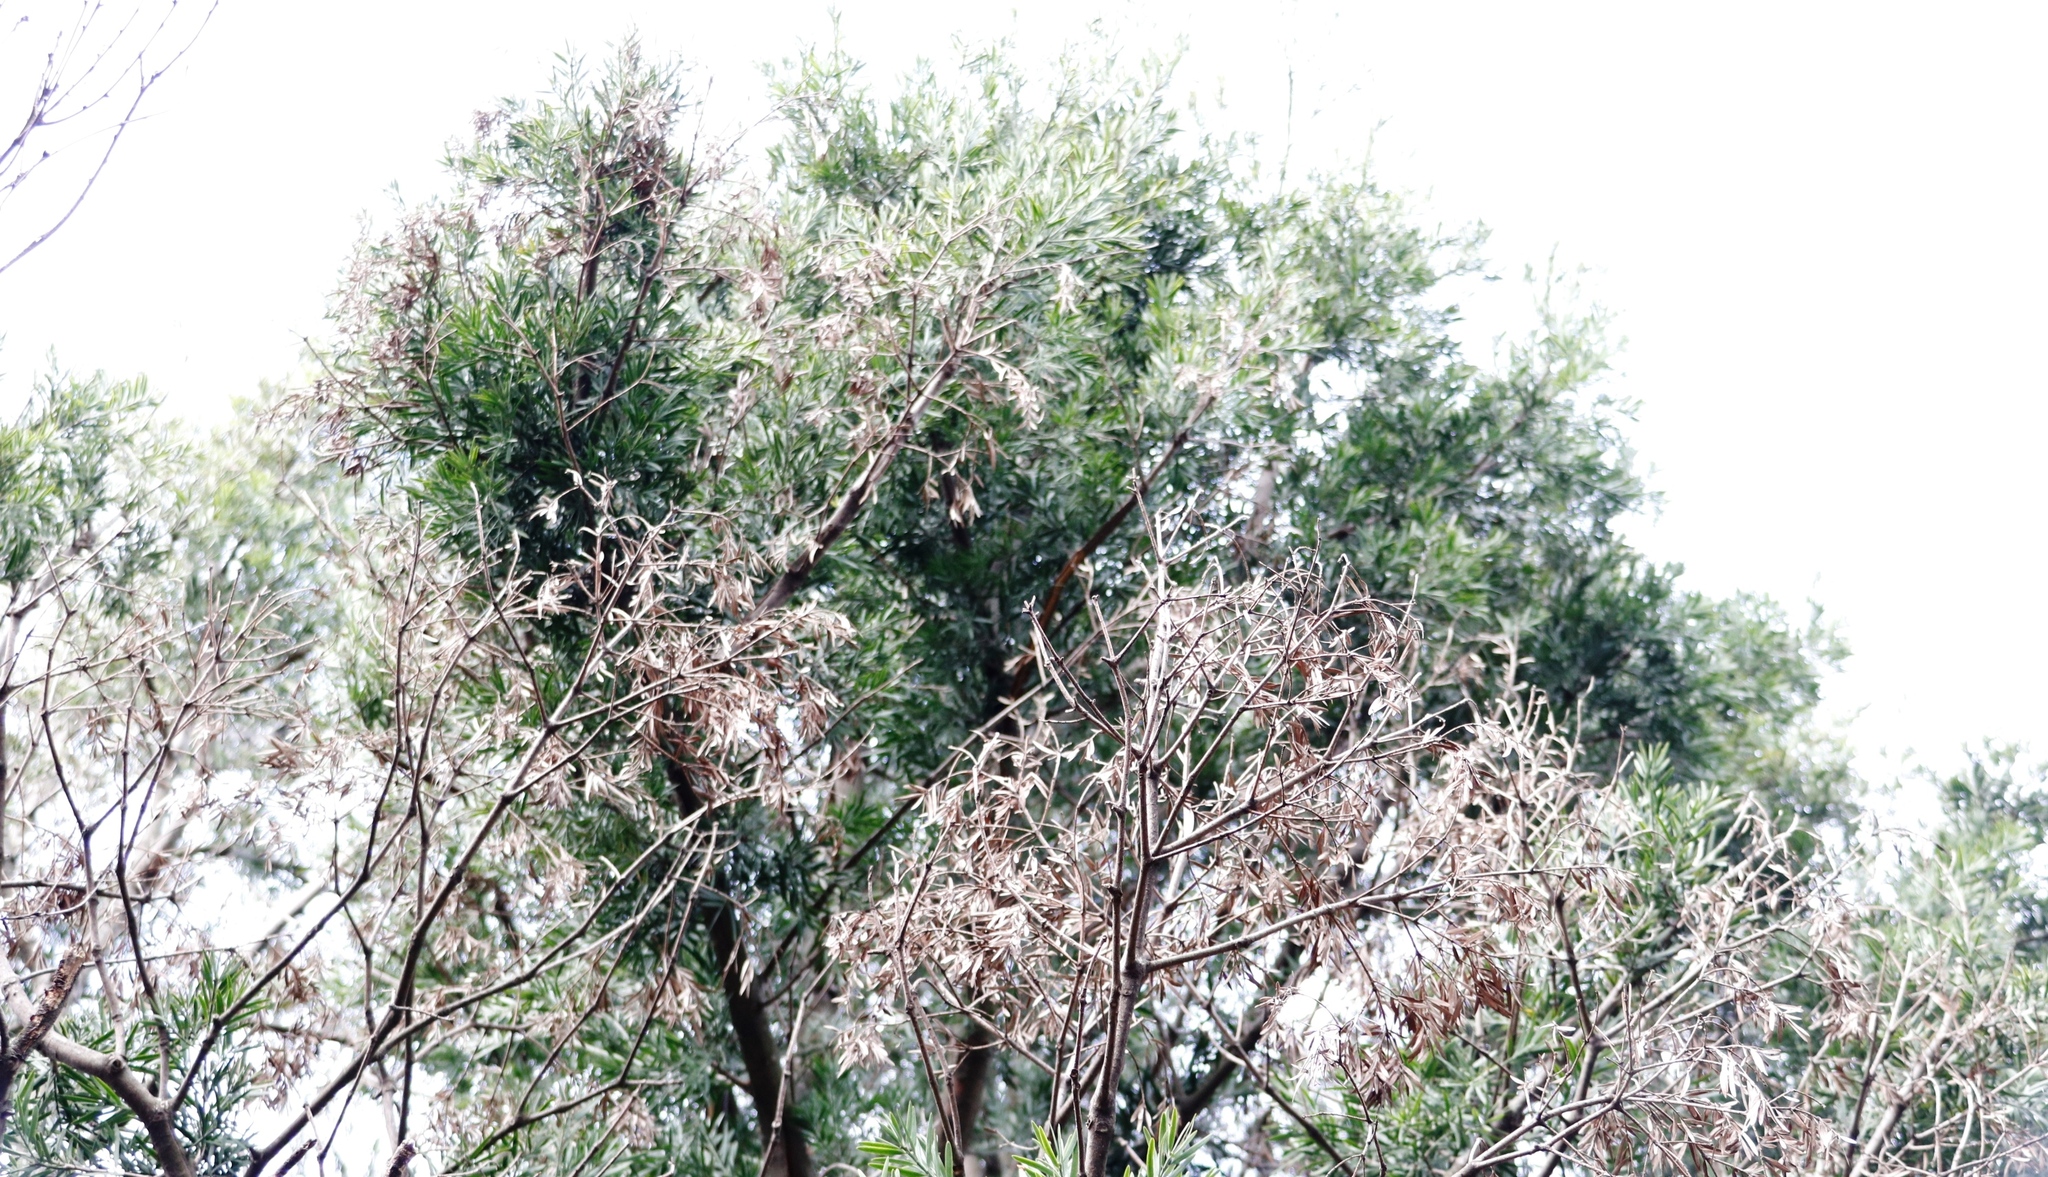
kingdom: Plantae
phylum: Tracheophyta
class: Pinopsida
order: Pinales
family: Podocarpaceae
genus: Afrocarpus
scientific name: Afrocarpus falcatus
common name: Bastard yellowwood
